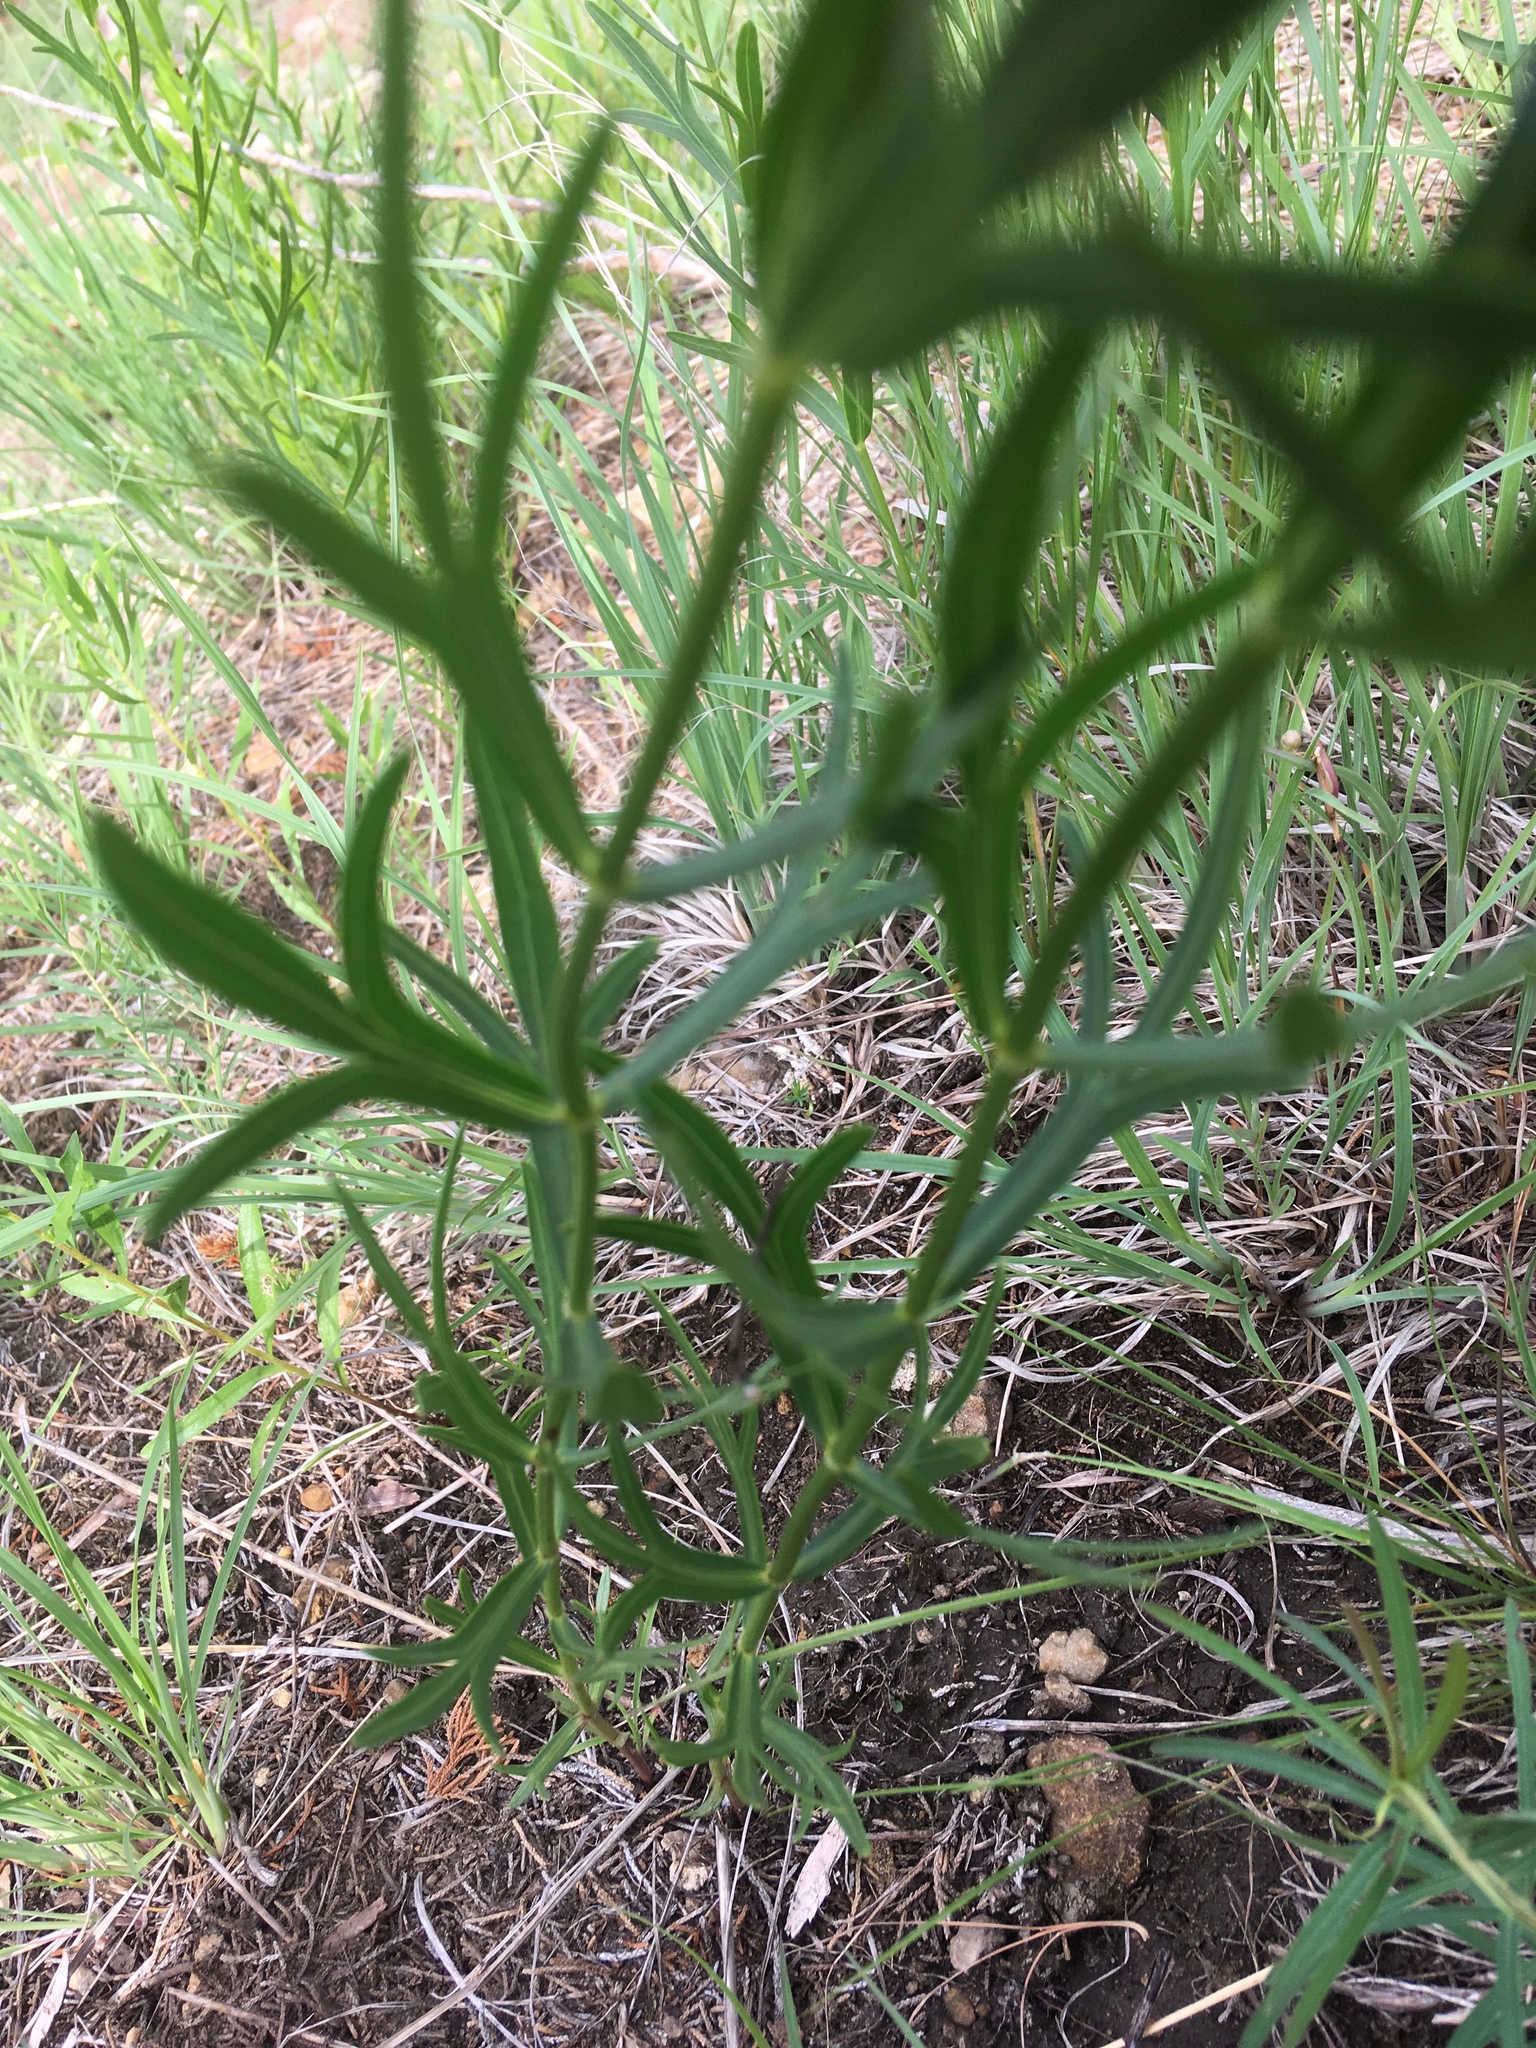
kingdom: Plantae
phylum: Tracheophyta
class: Magnoliopsida
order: Asterales
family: Asteraceae
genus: Coreopsis
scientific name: Coreopsis palmata
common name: Prairie coreopsis
